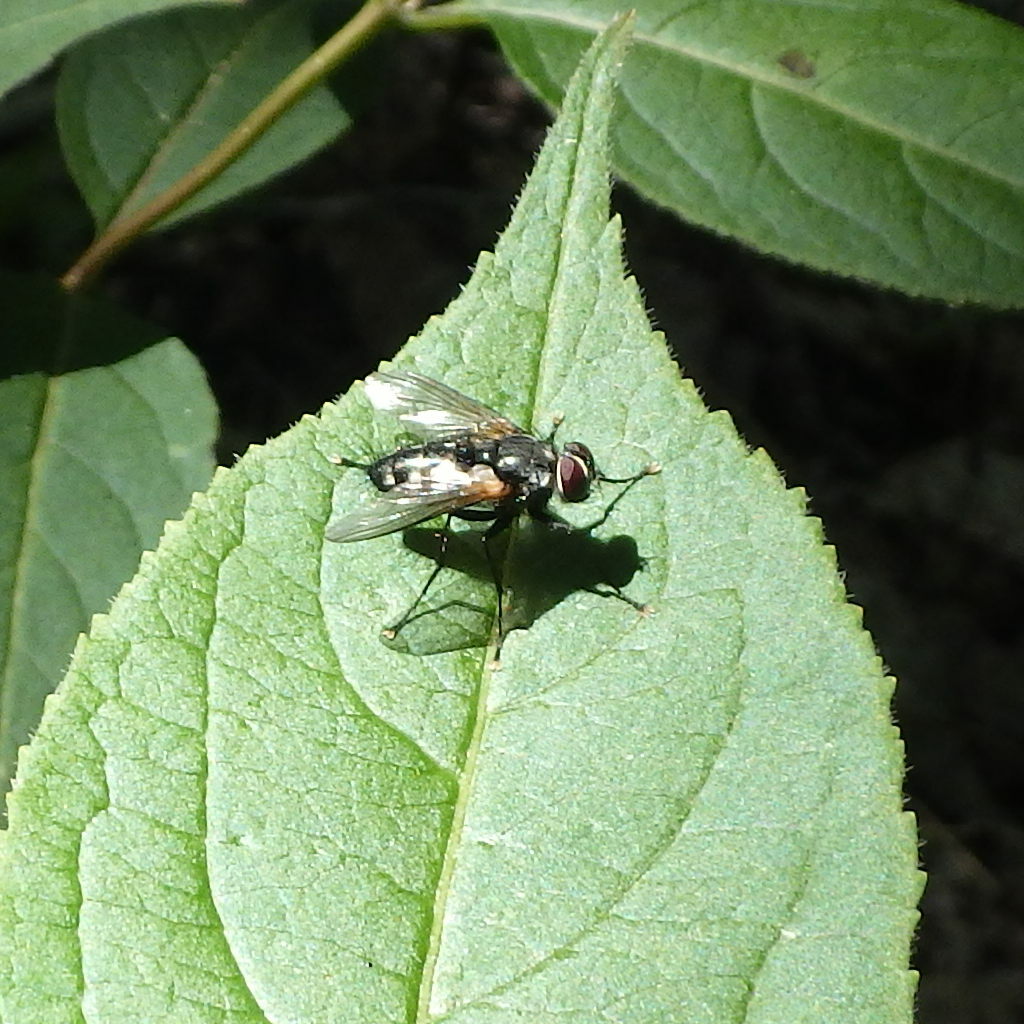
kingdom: Animalia
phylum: Arthropoda
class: Insecta
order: Diptera
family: Tachinidae
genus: Thelaira
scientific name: Thelaira americana
